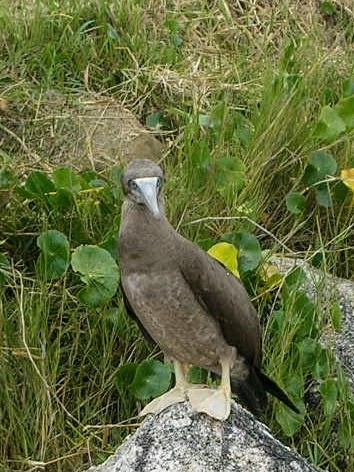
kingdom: Animalia
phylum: Chordata
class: Aves
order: Suliformes
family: Sulidae
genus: Sula
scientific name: Sula leucogaster
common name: Brown booby
